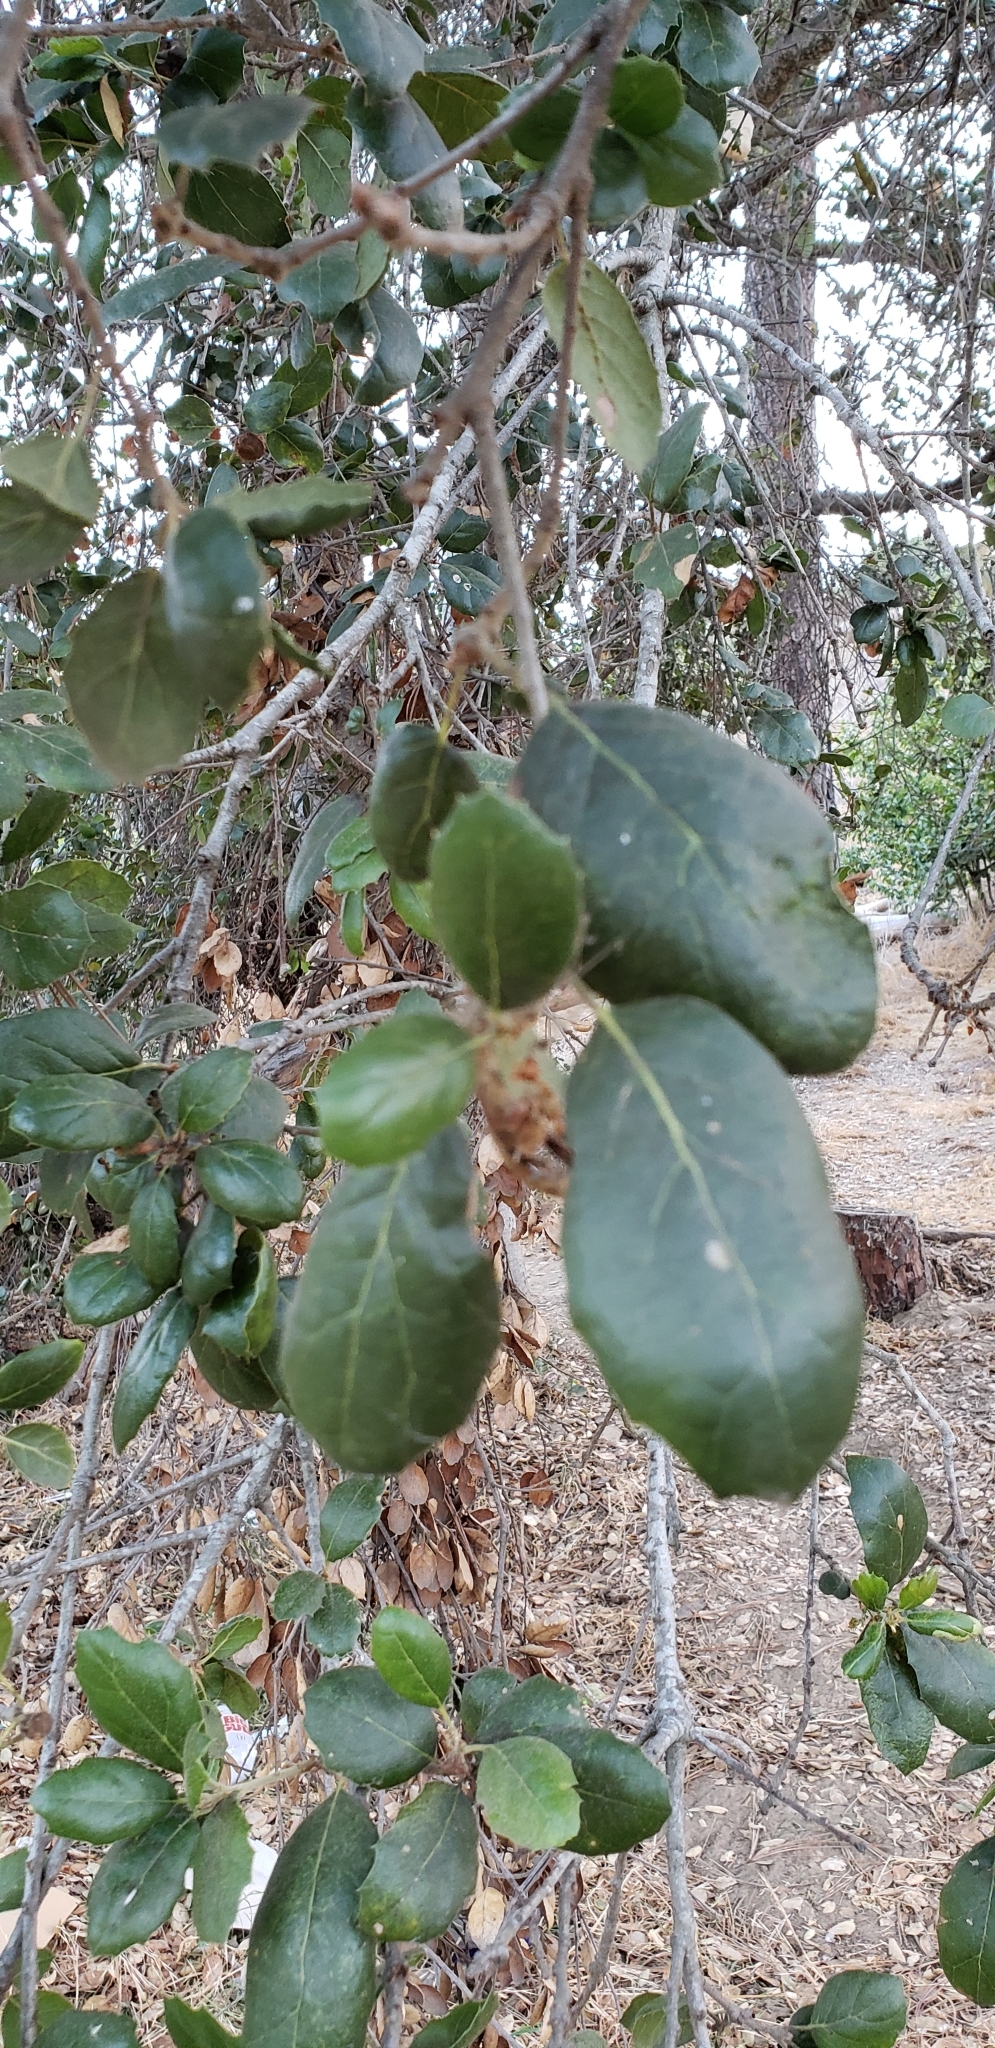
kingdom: Plantae
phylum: Tracheophyta
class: Magnoliopsida
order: Fagales
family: Fagaceae
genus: Quercus
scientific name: Quercus agrifolia
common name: California live oak
